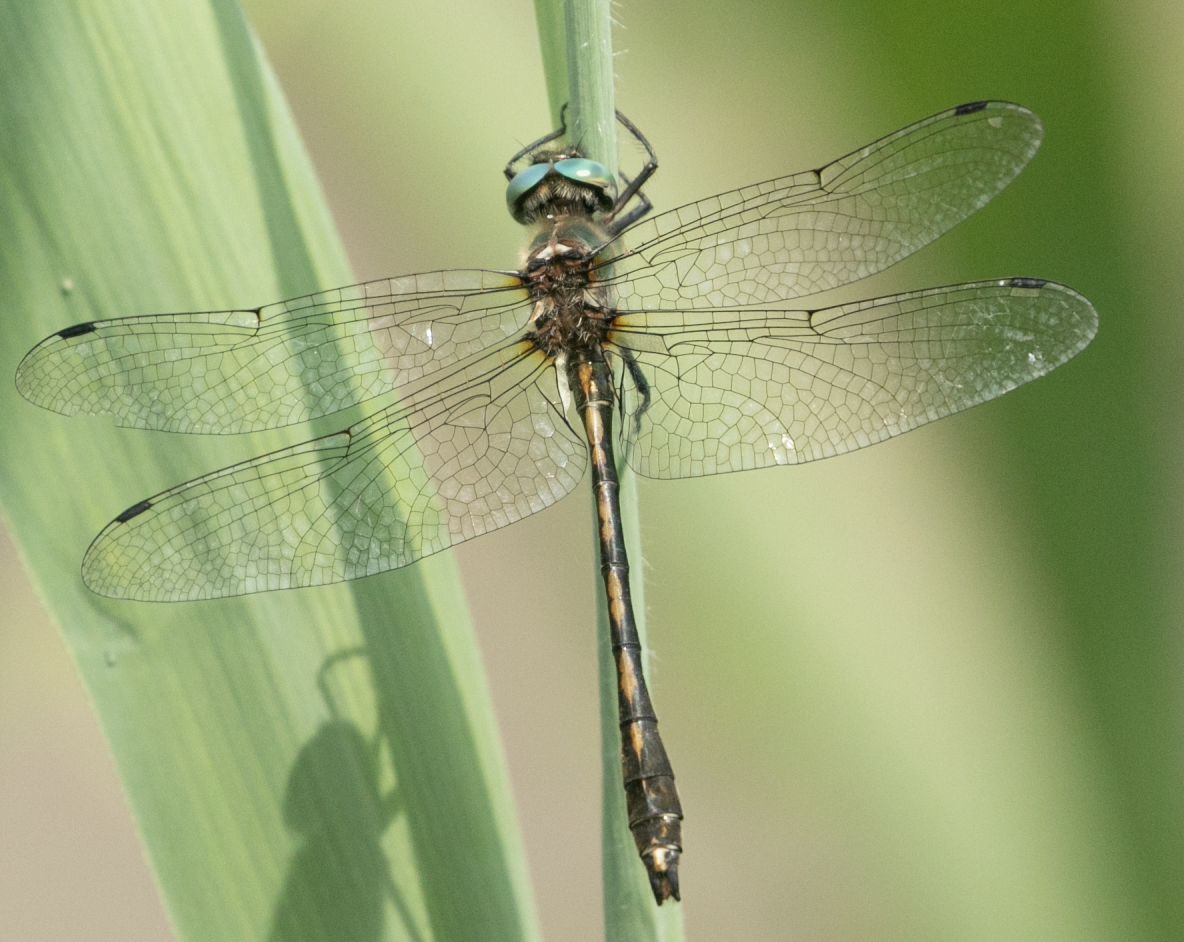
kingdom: Animalia
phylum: Arthropoda
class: Insecta
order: Odonata
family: Corduliidae
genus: Oxygastra
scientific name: Oxygastra curtisii
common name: Orange-spotted emerald
